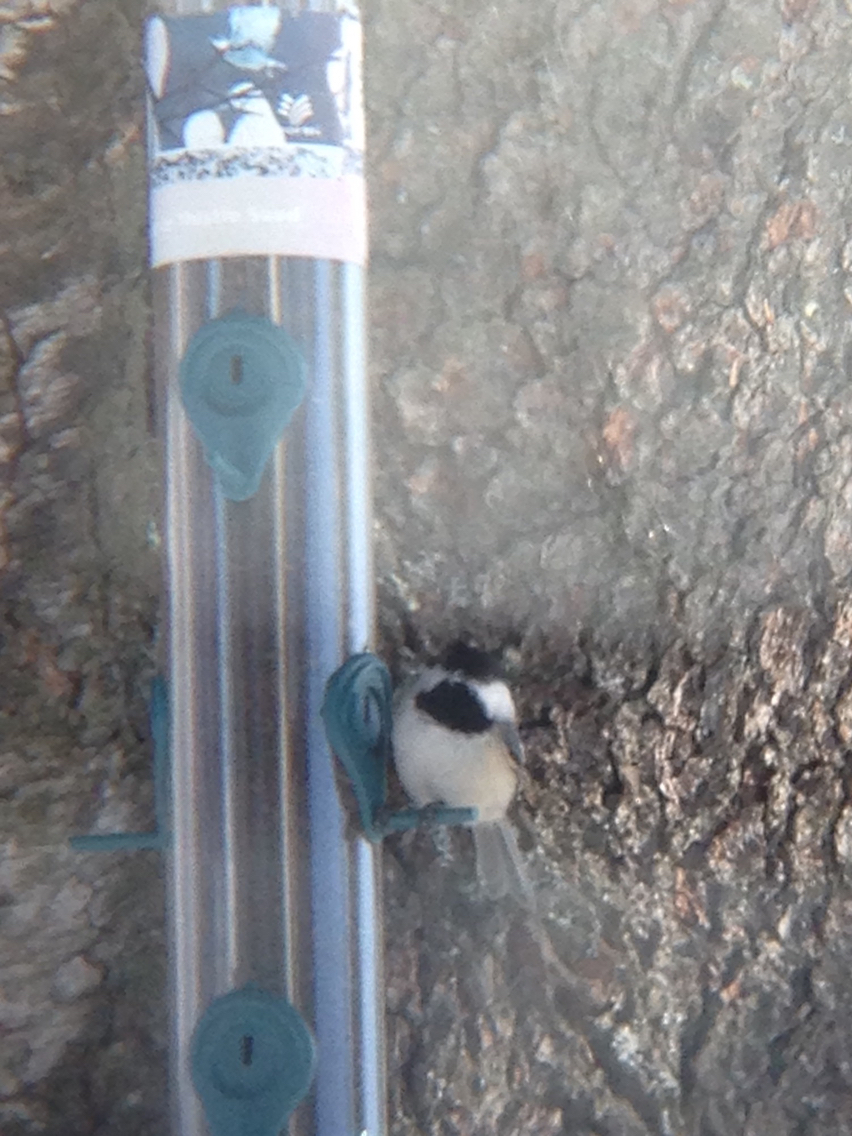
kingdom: Animalia
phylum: Chordata
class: Aves
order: Passeriformes
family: Paridae
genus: Poecile
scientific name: Poecile atricapillus
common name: Black-capped chickadee
